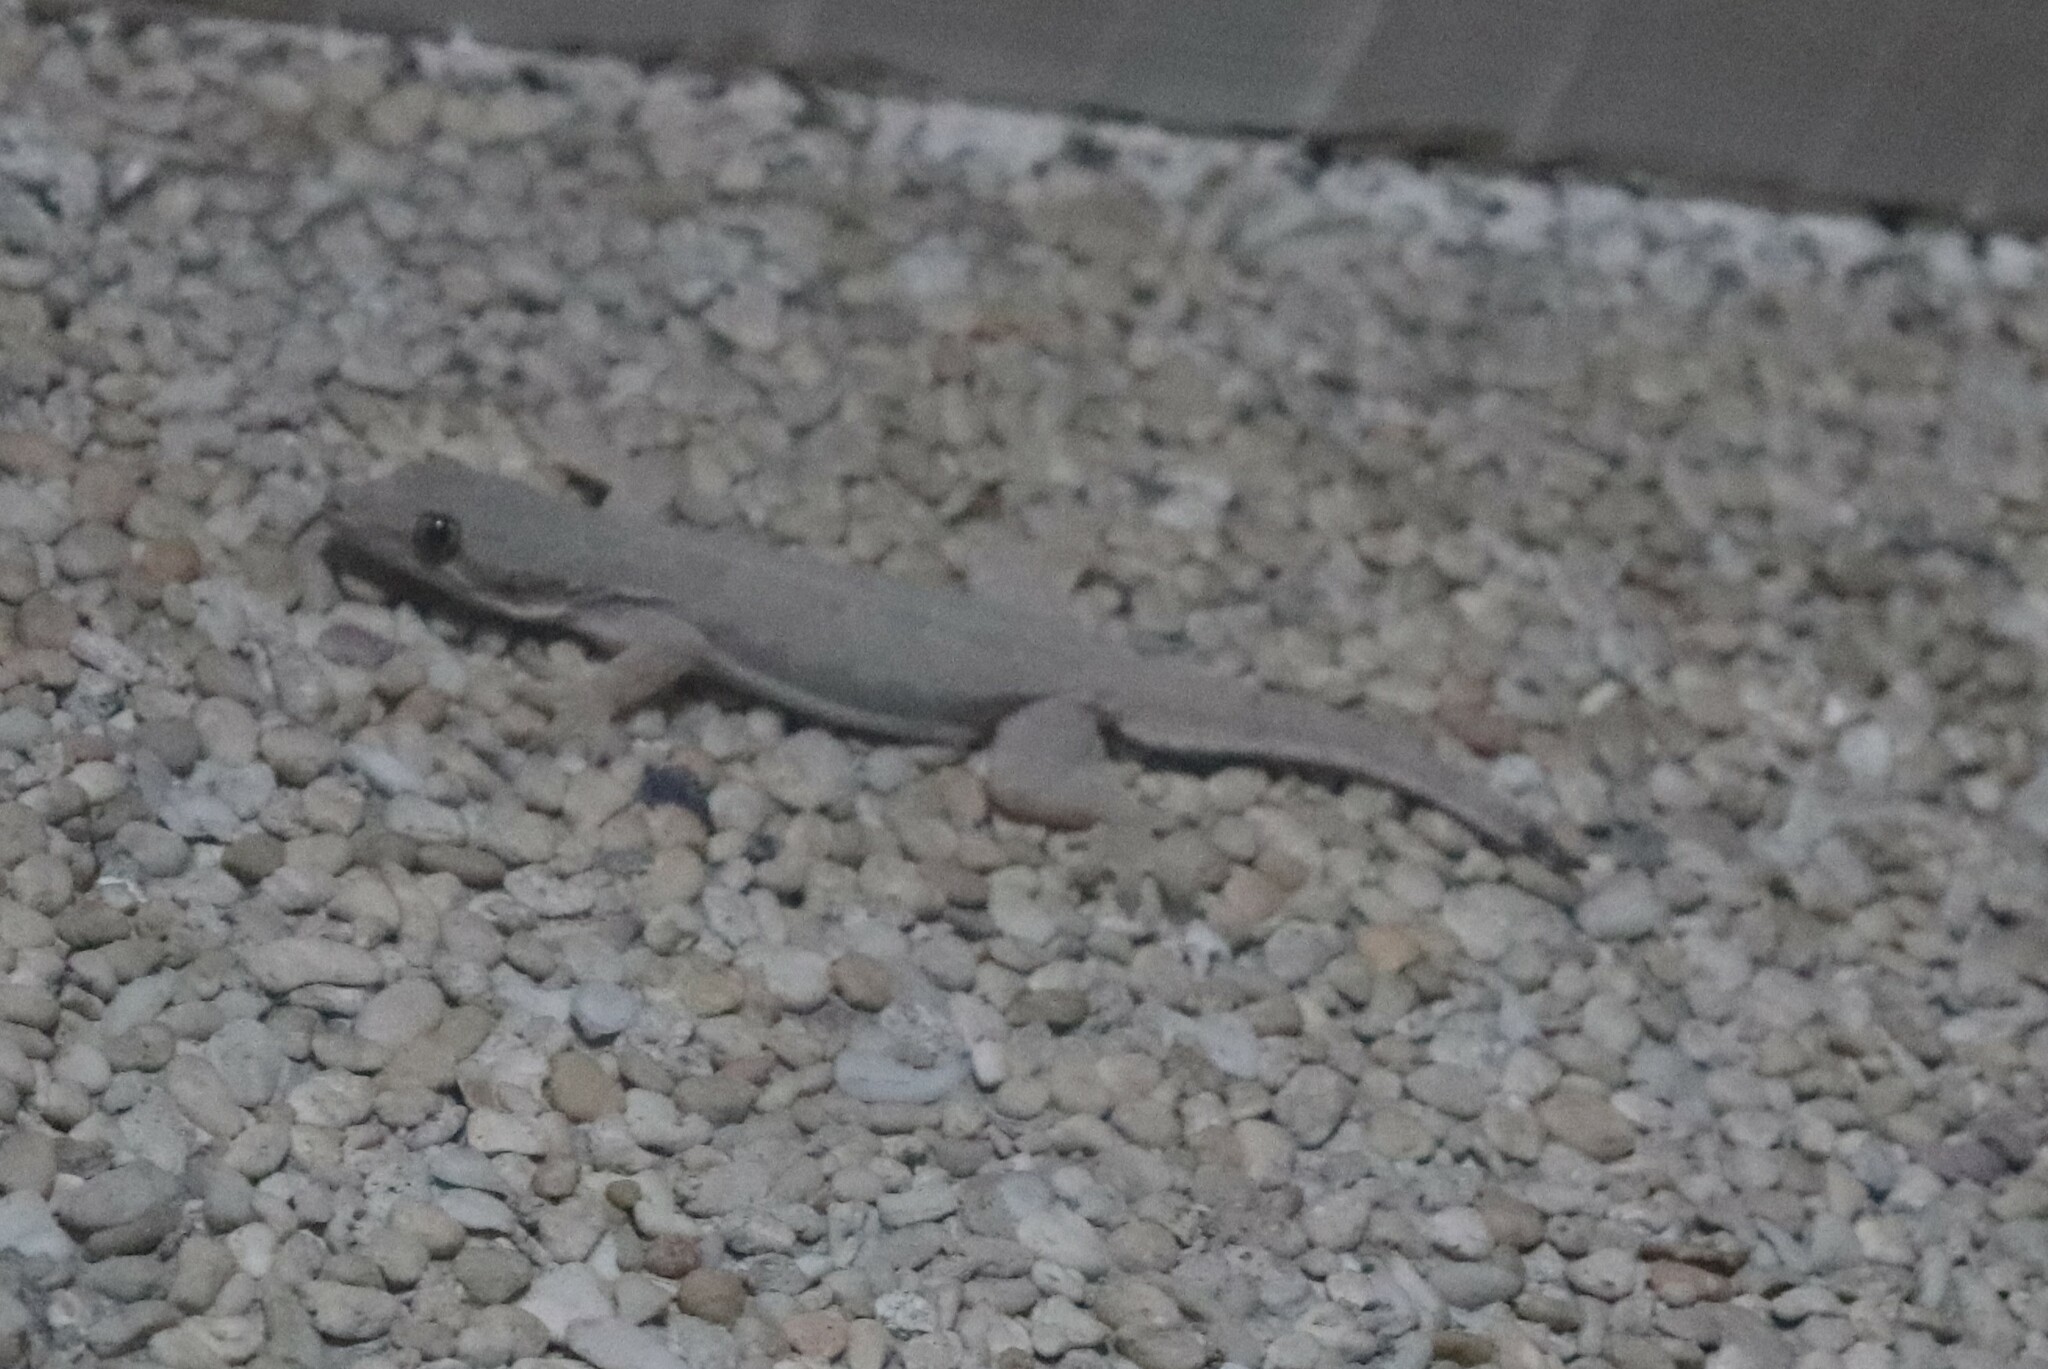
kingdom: Animalia
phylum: Chordata
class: Squamata
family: Gekkonidae
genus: Hemidactylus
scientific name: Hemidactylus platyurus
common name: Flat-tailed house gecko
